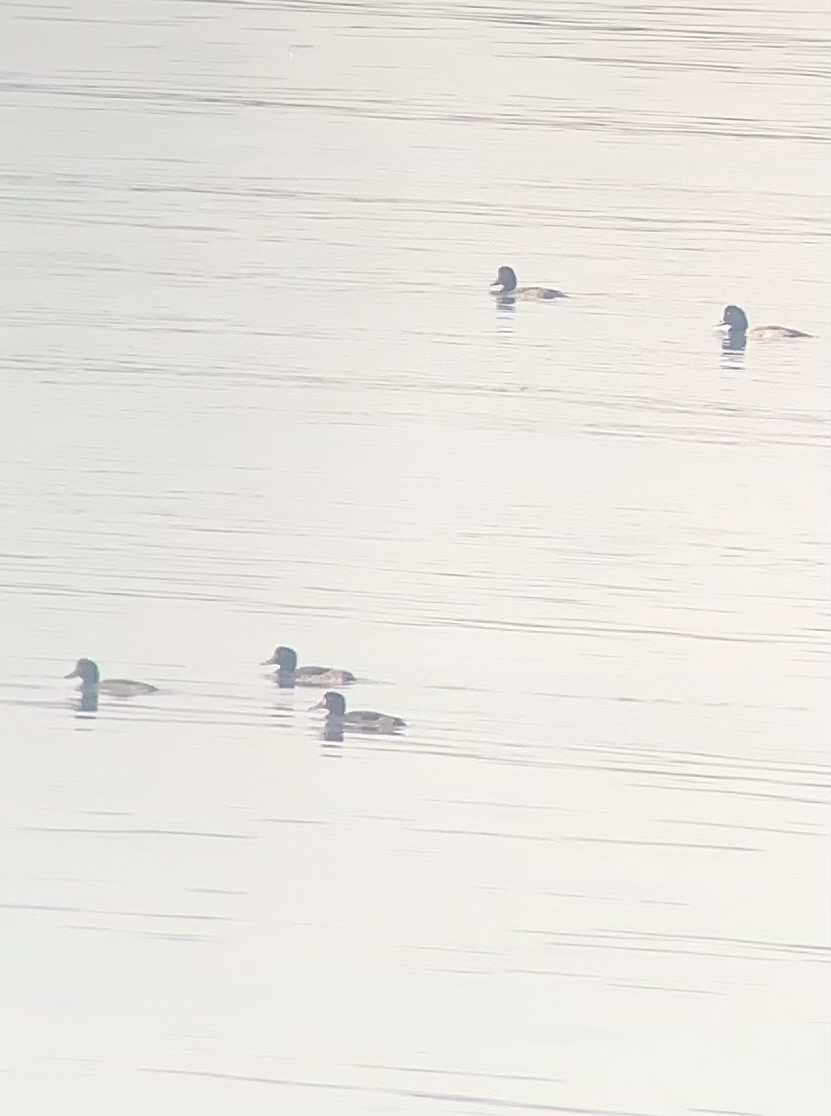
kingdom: Animalia
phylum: Chordata
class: Aves
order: Anseriformes
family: Anatidae
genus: Aythya
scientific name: Aythya marila
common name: Greater scaup
